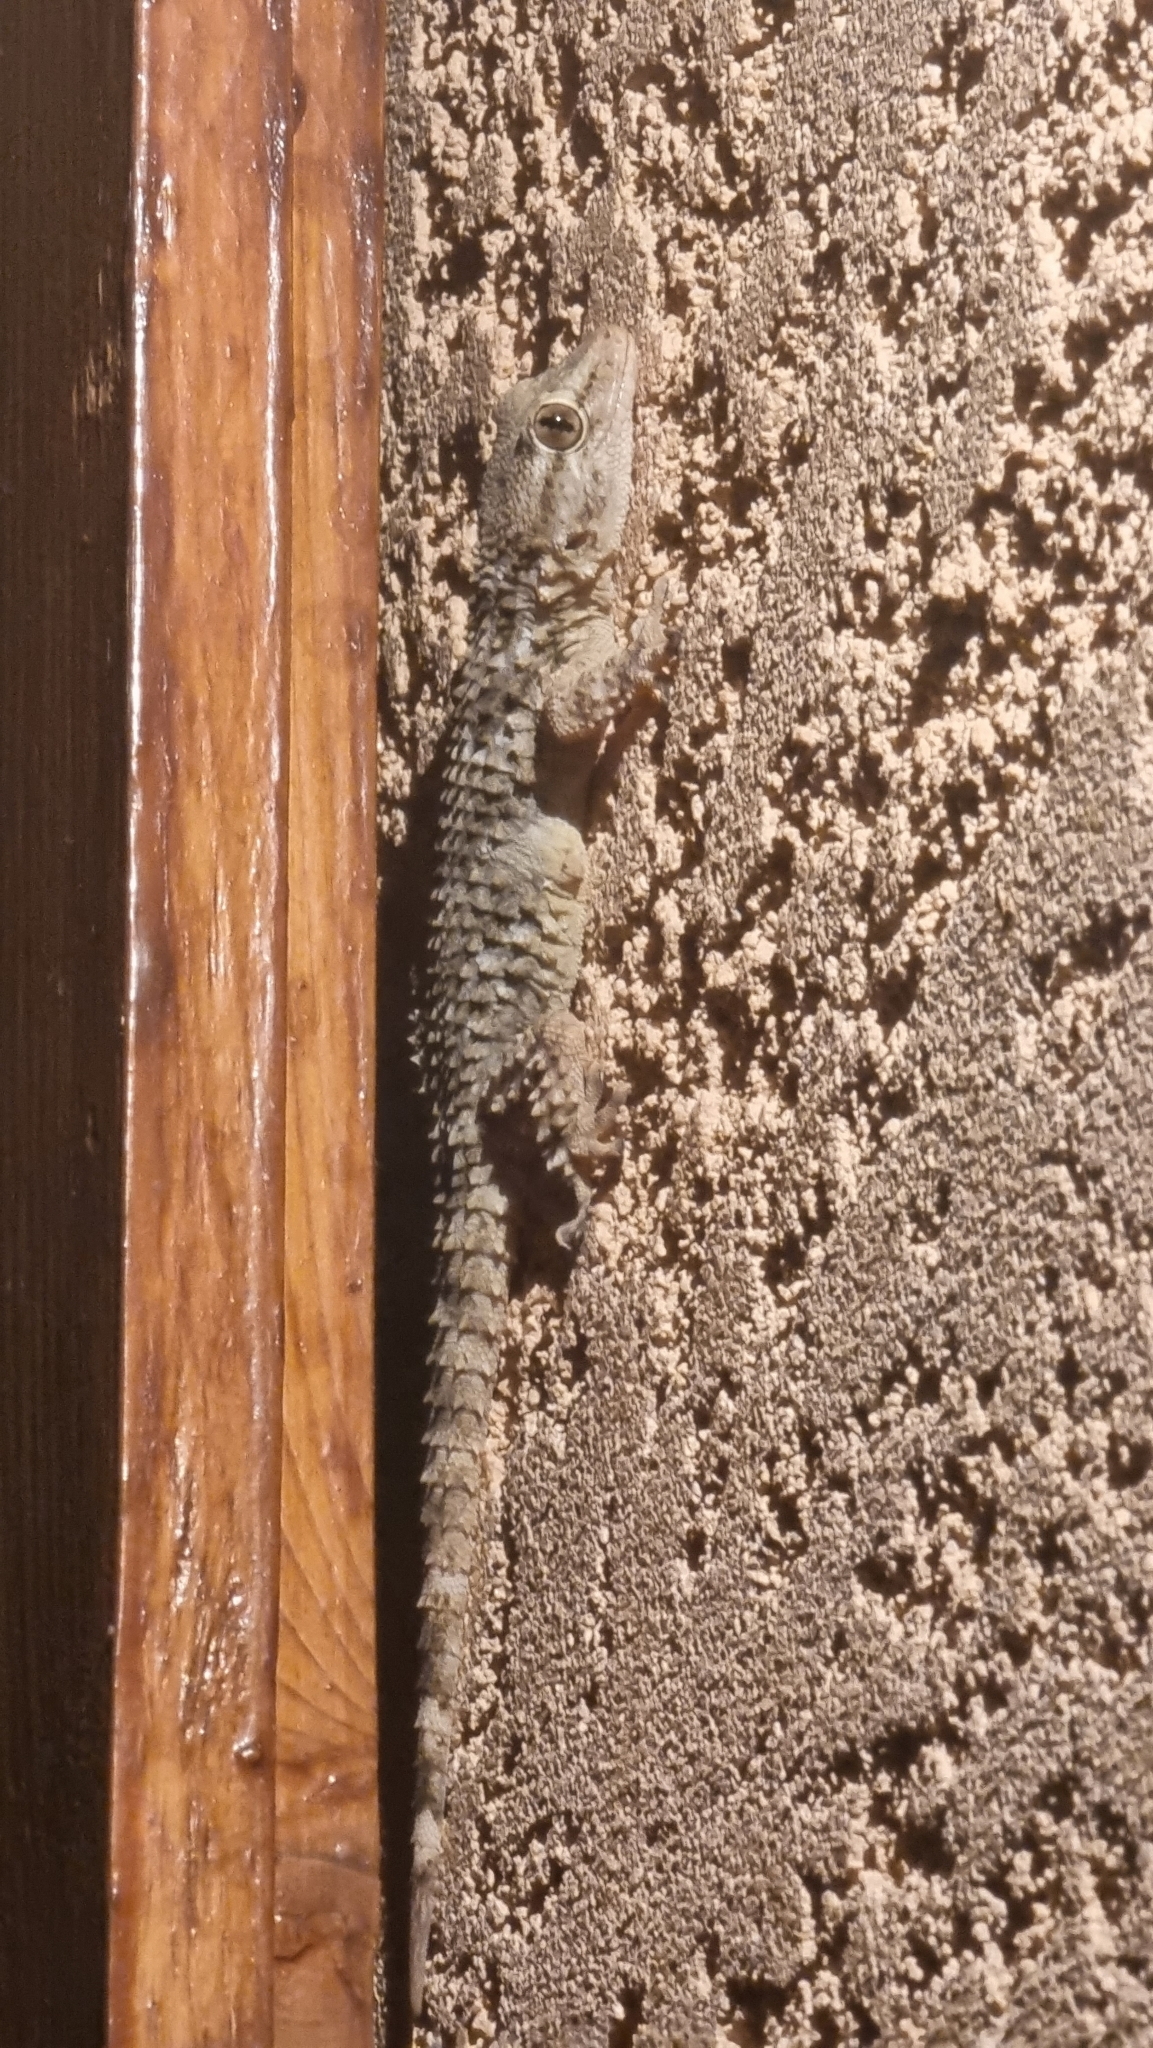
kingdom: Animalia
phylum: Chordata
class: Squamata
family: Phyllodactylidae
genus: Tarentola
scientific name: Tarentola mauritanica
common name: Moorish gecko
